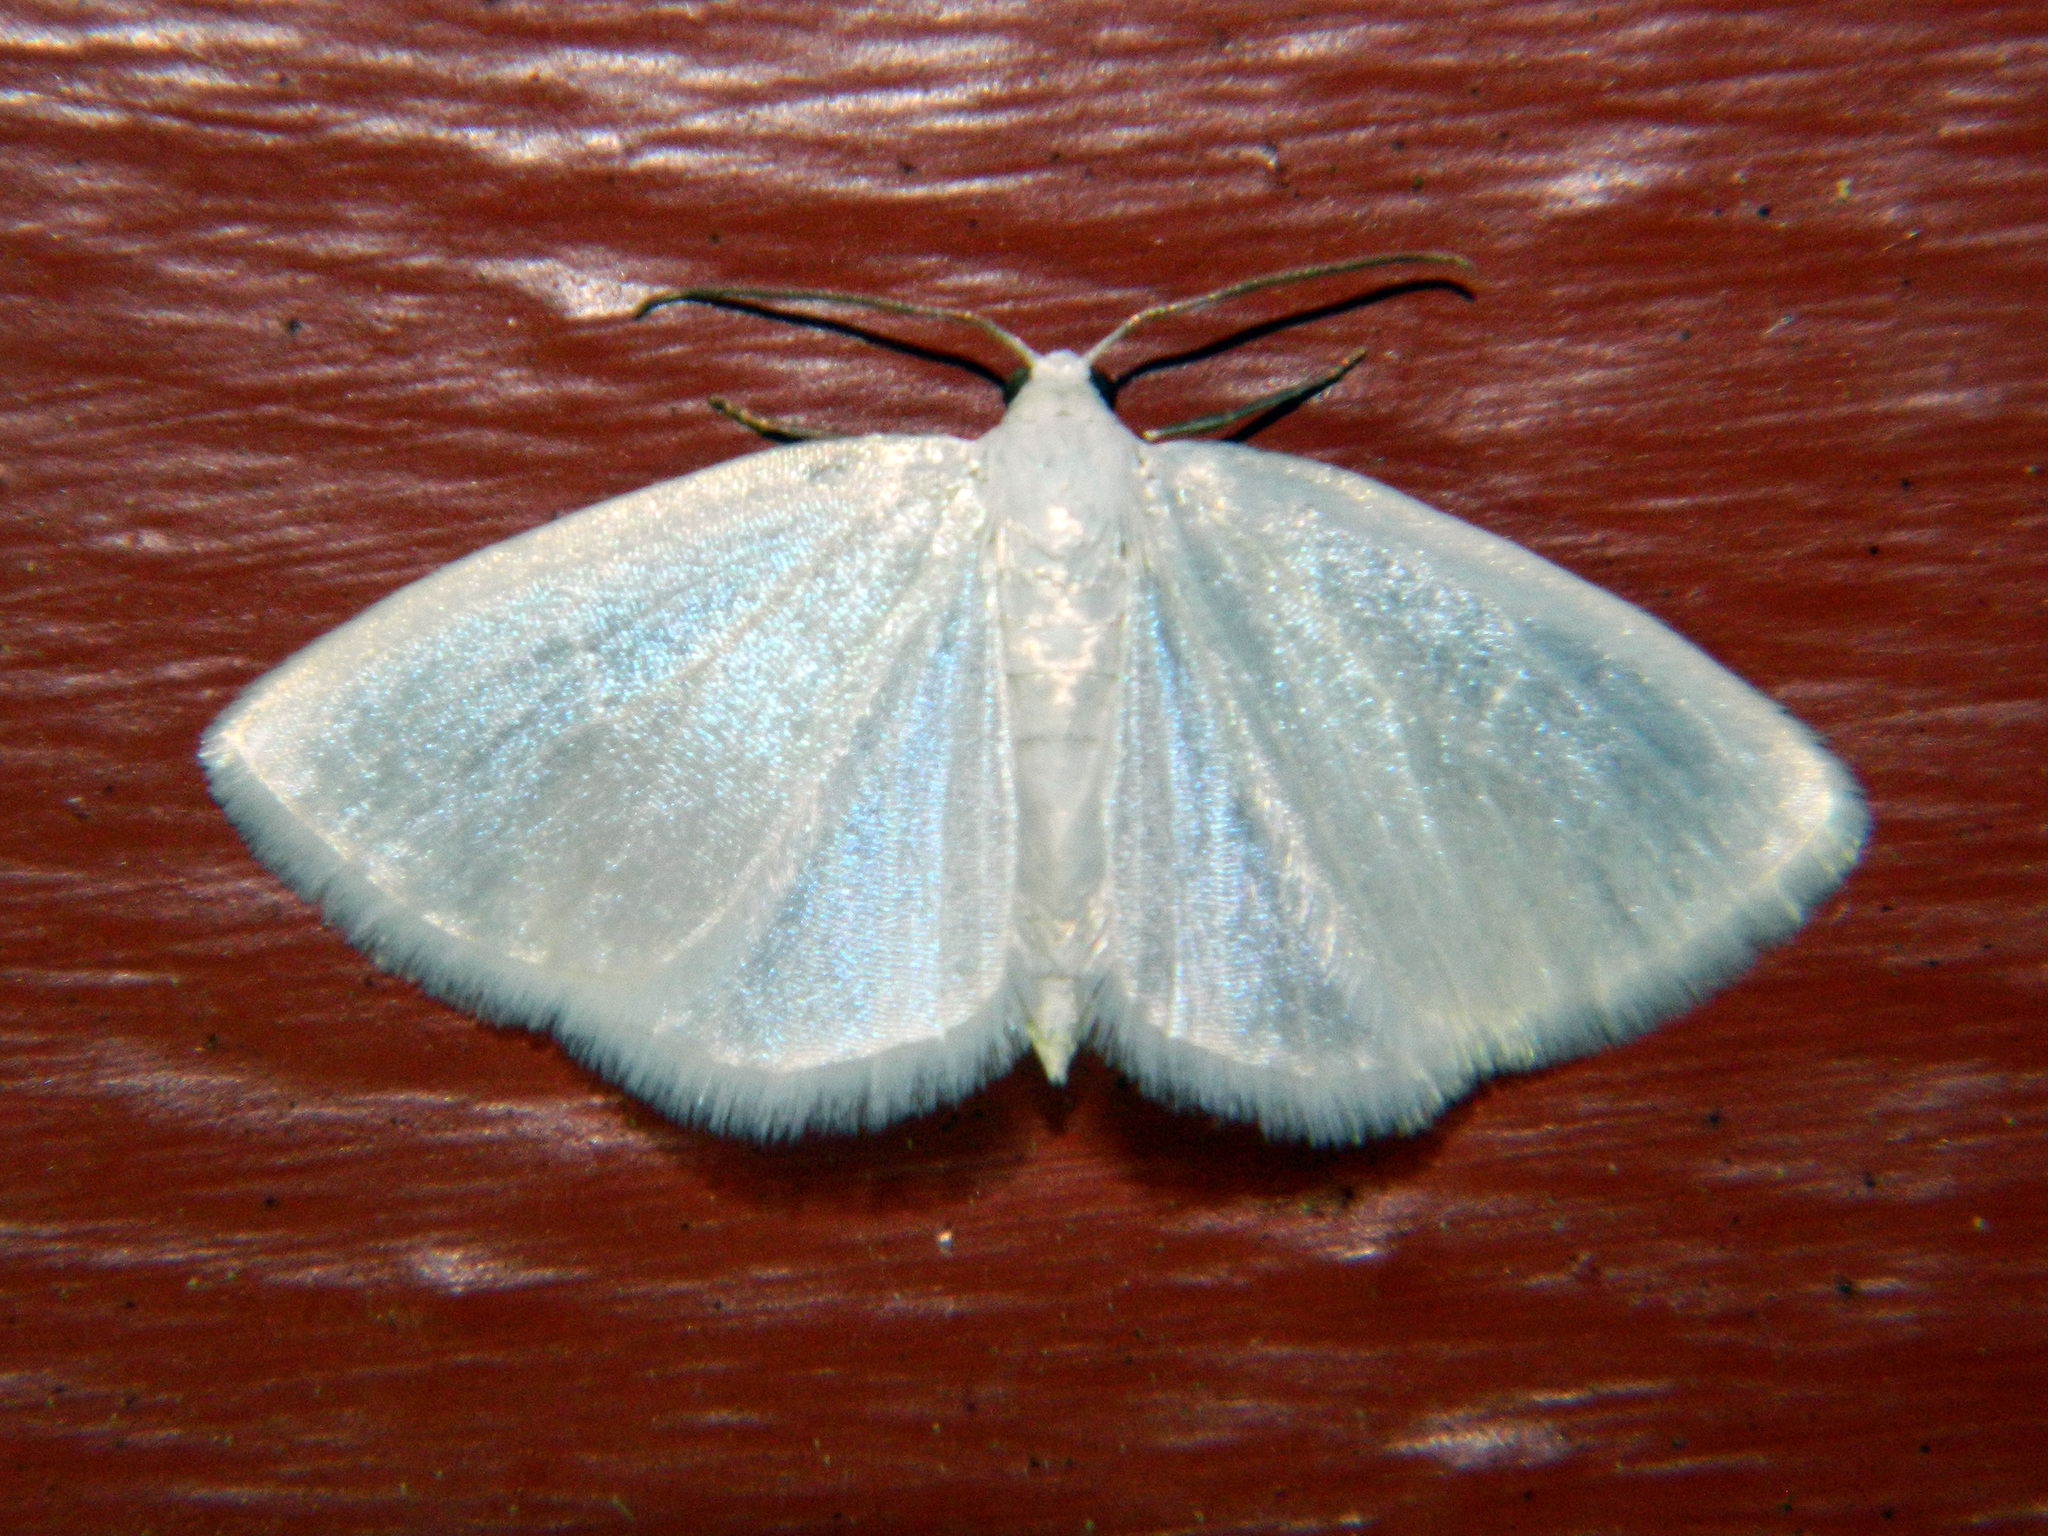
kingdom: Animalia
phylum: Arthropoda
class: Insecta
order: Lepidoptera
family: Geometridae
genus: Lomographa
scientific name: Lomographa vestaliata
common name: White spring moth
